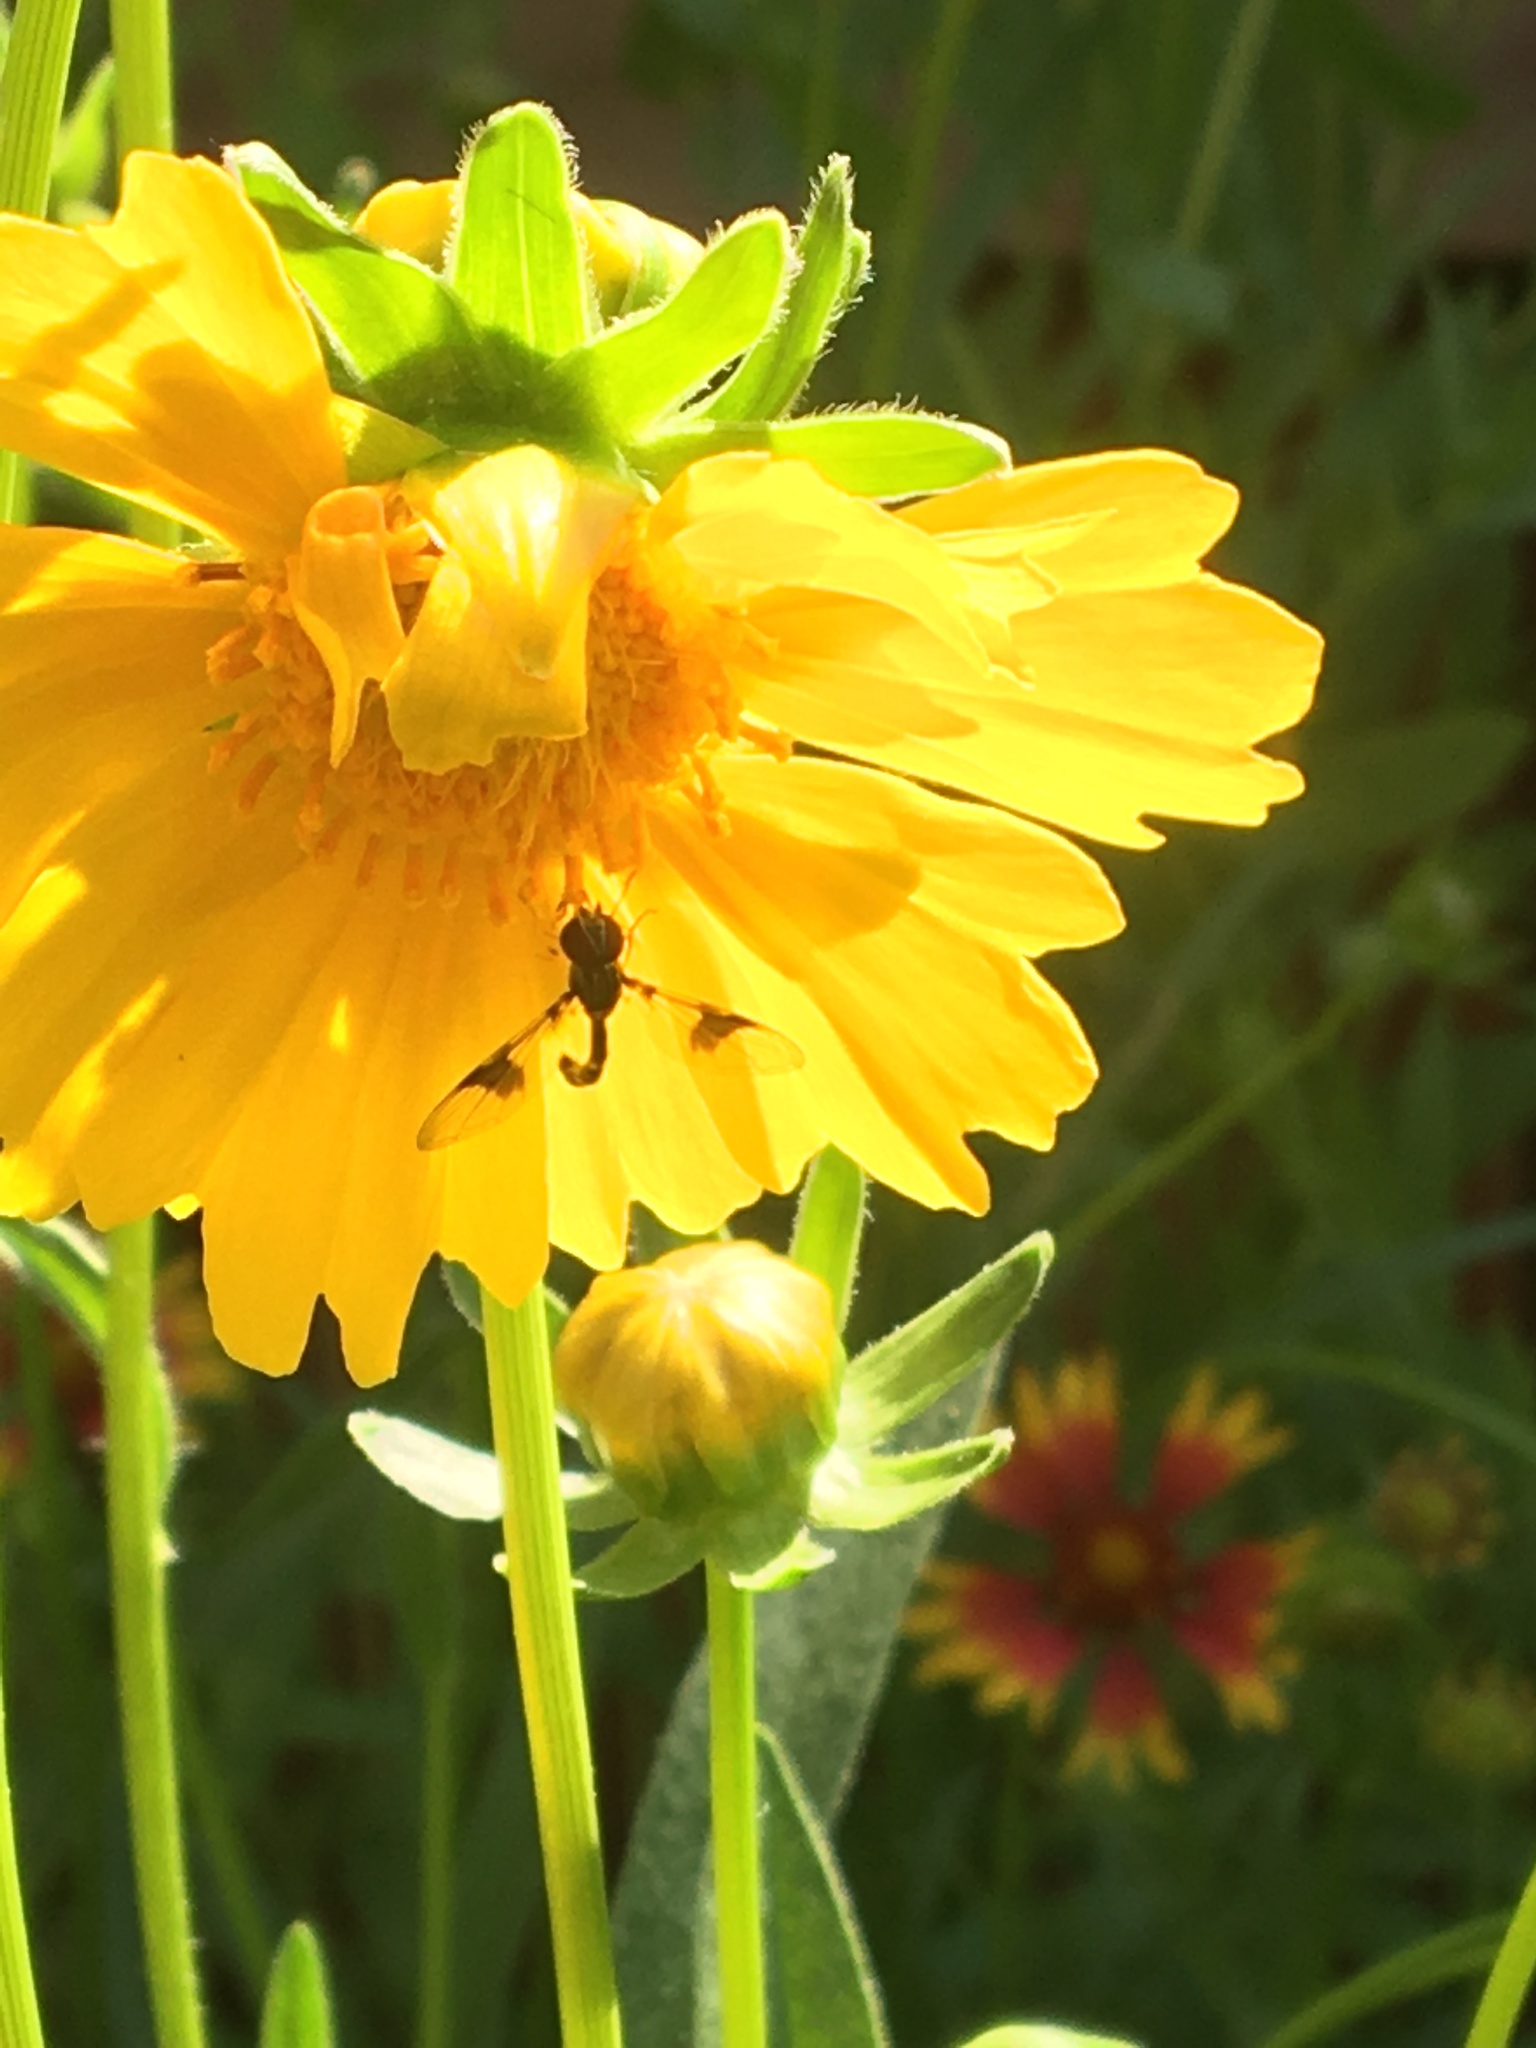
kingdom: Animalia
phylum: Arthropoda
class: Insecta
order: Diptera
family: Syrphidae
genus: Hypocritanus
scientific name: Hypocritanus fascipennis
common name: Eastern band-winged hover fly
